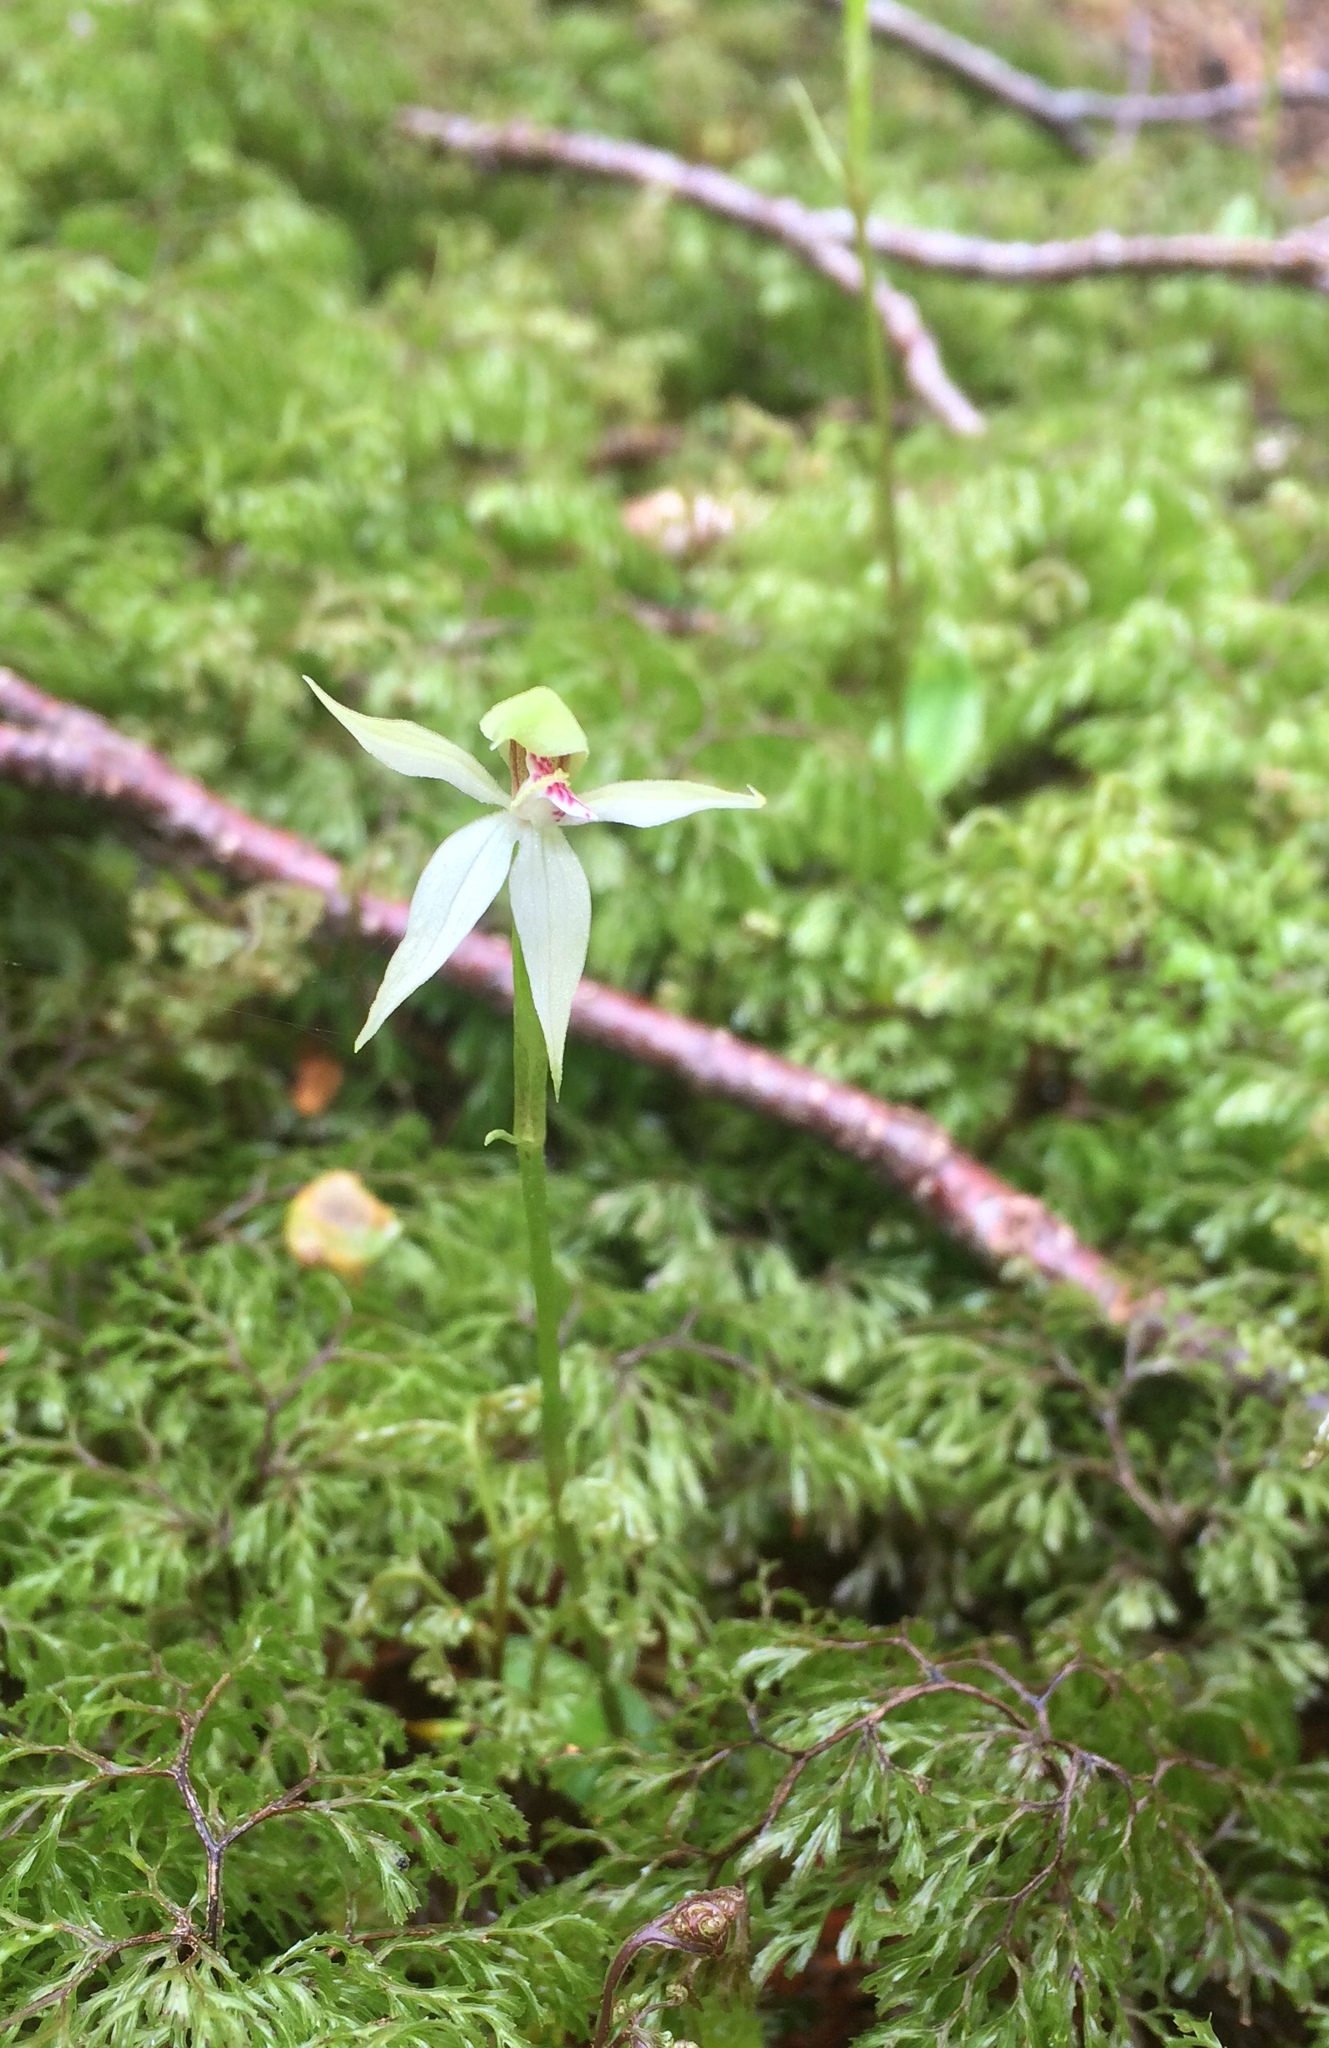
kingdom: Plantae
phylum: Tracheophyta
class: Liliopsida
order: Asparagales
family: Orchidaceae
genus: Adenochilus
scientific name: Adenochilus gracilis
